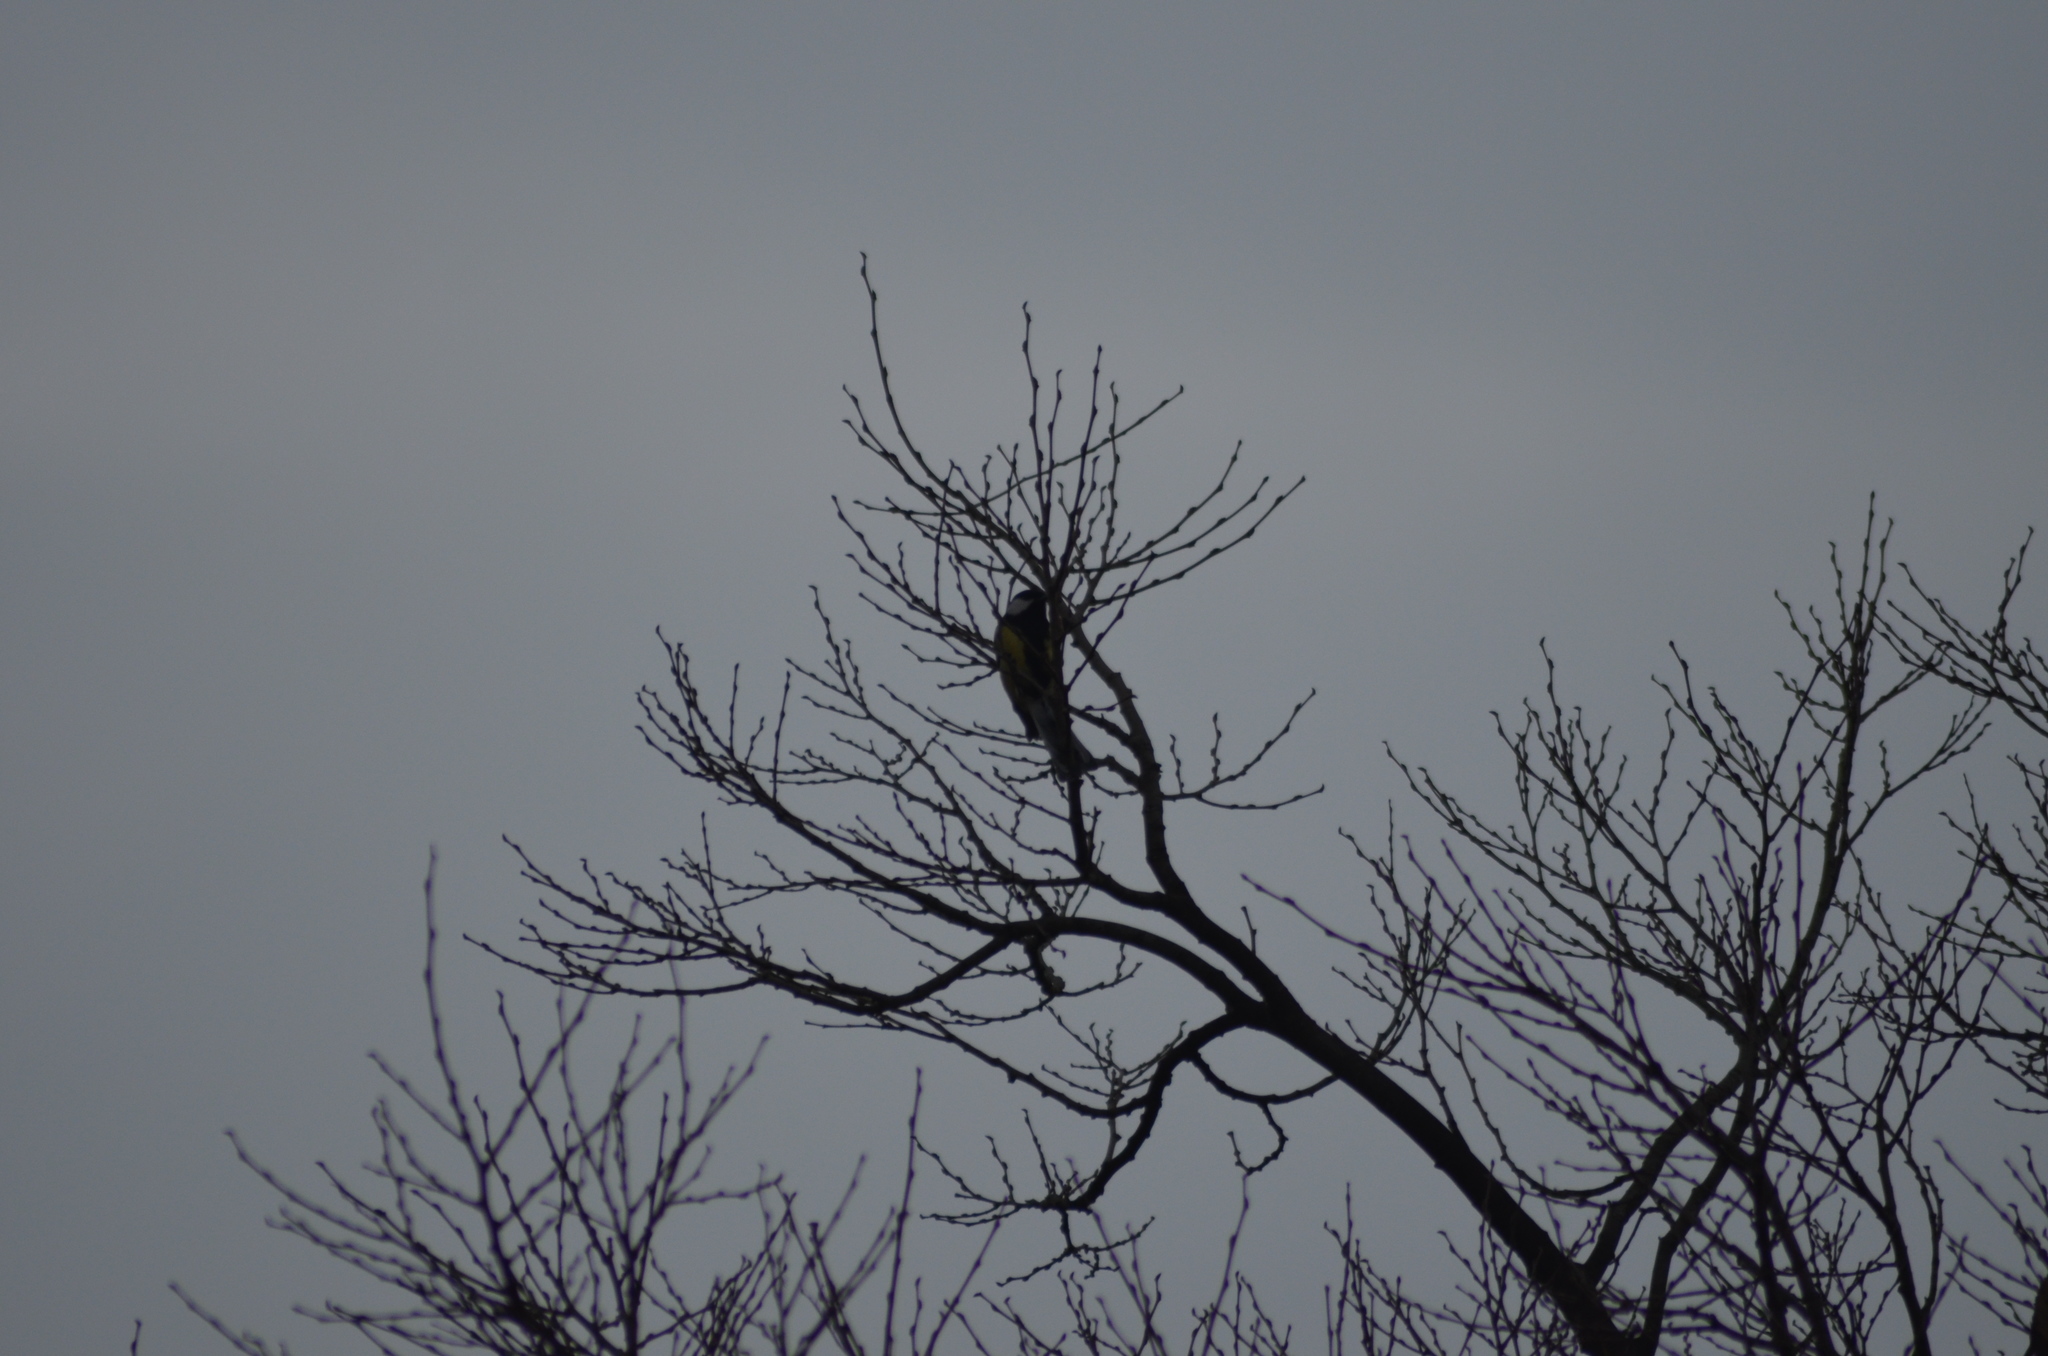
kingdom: Animalia
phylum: Chordata
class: Aves
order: Passeriformes
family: Paridae
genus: Parus
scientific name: Parus major
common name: Great tit
